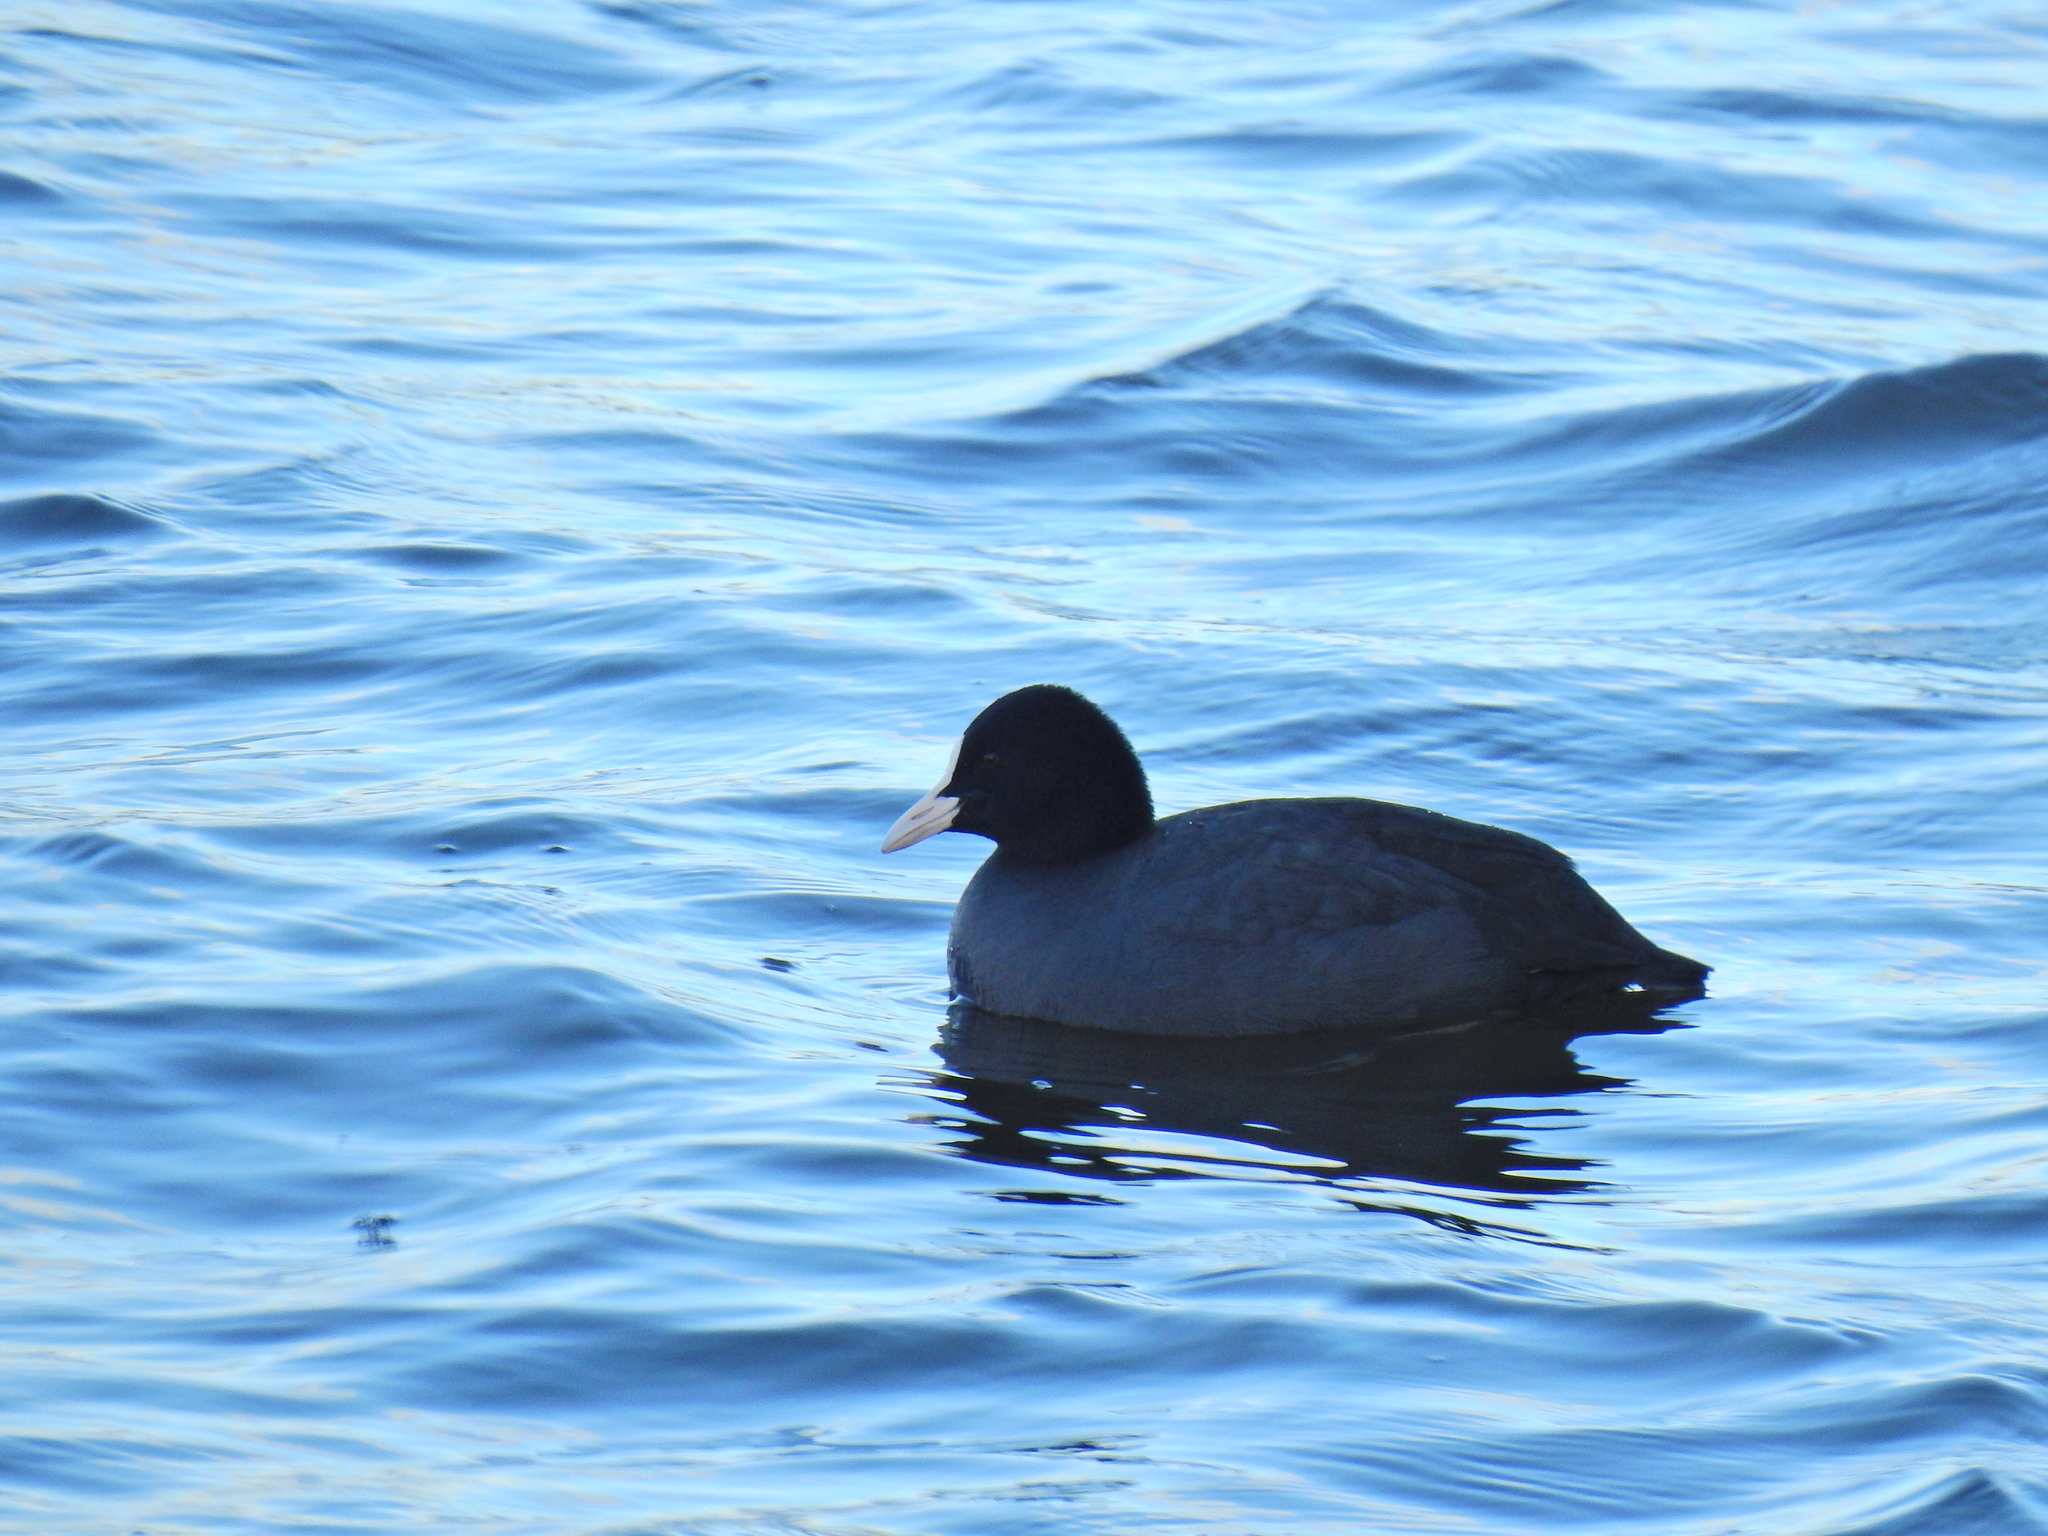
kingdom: Animalia
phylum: Chordata
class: Aves
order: Gruiformes
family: Rallidae
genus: Fulica
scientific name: Fulica atra
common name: Eurasian coot
